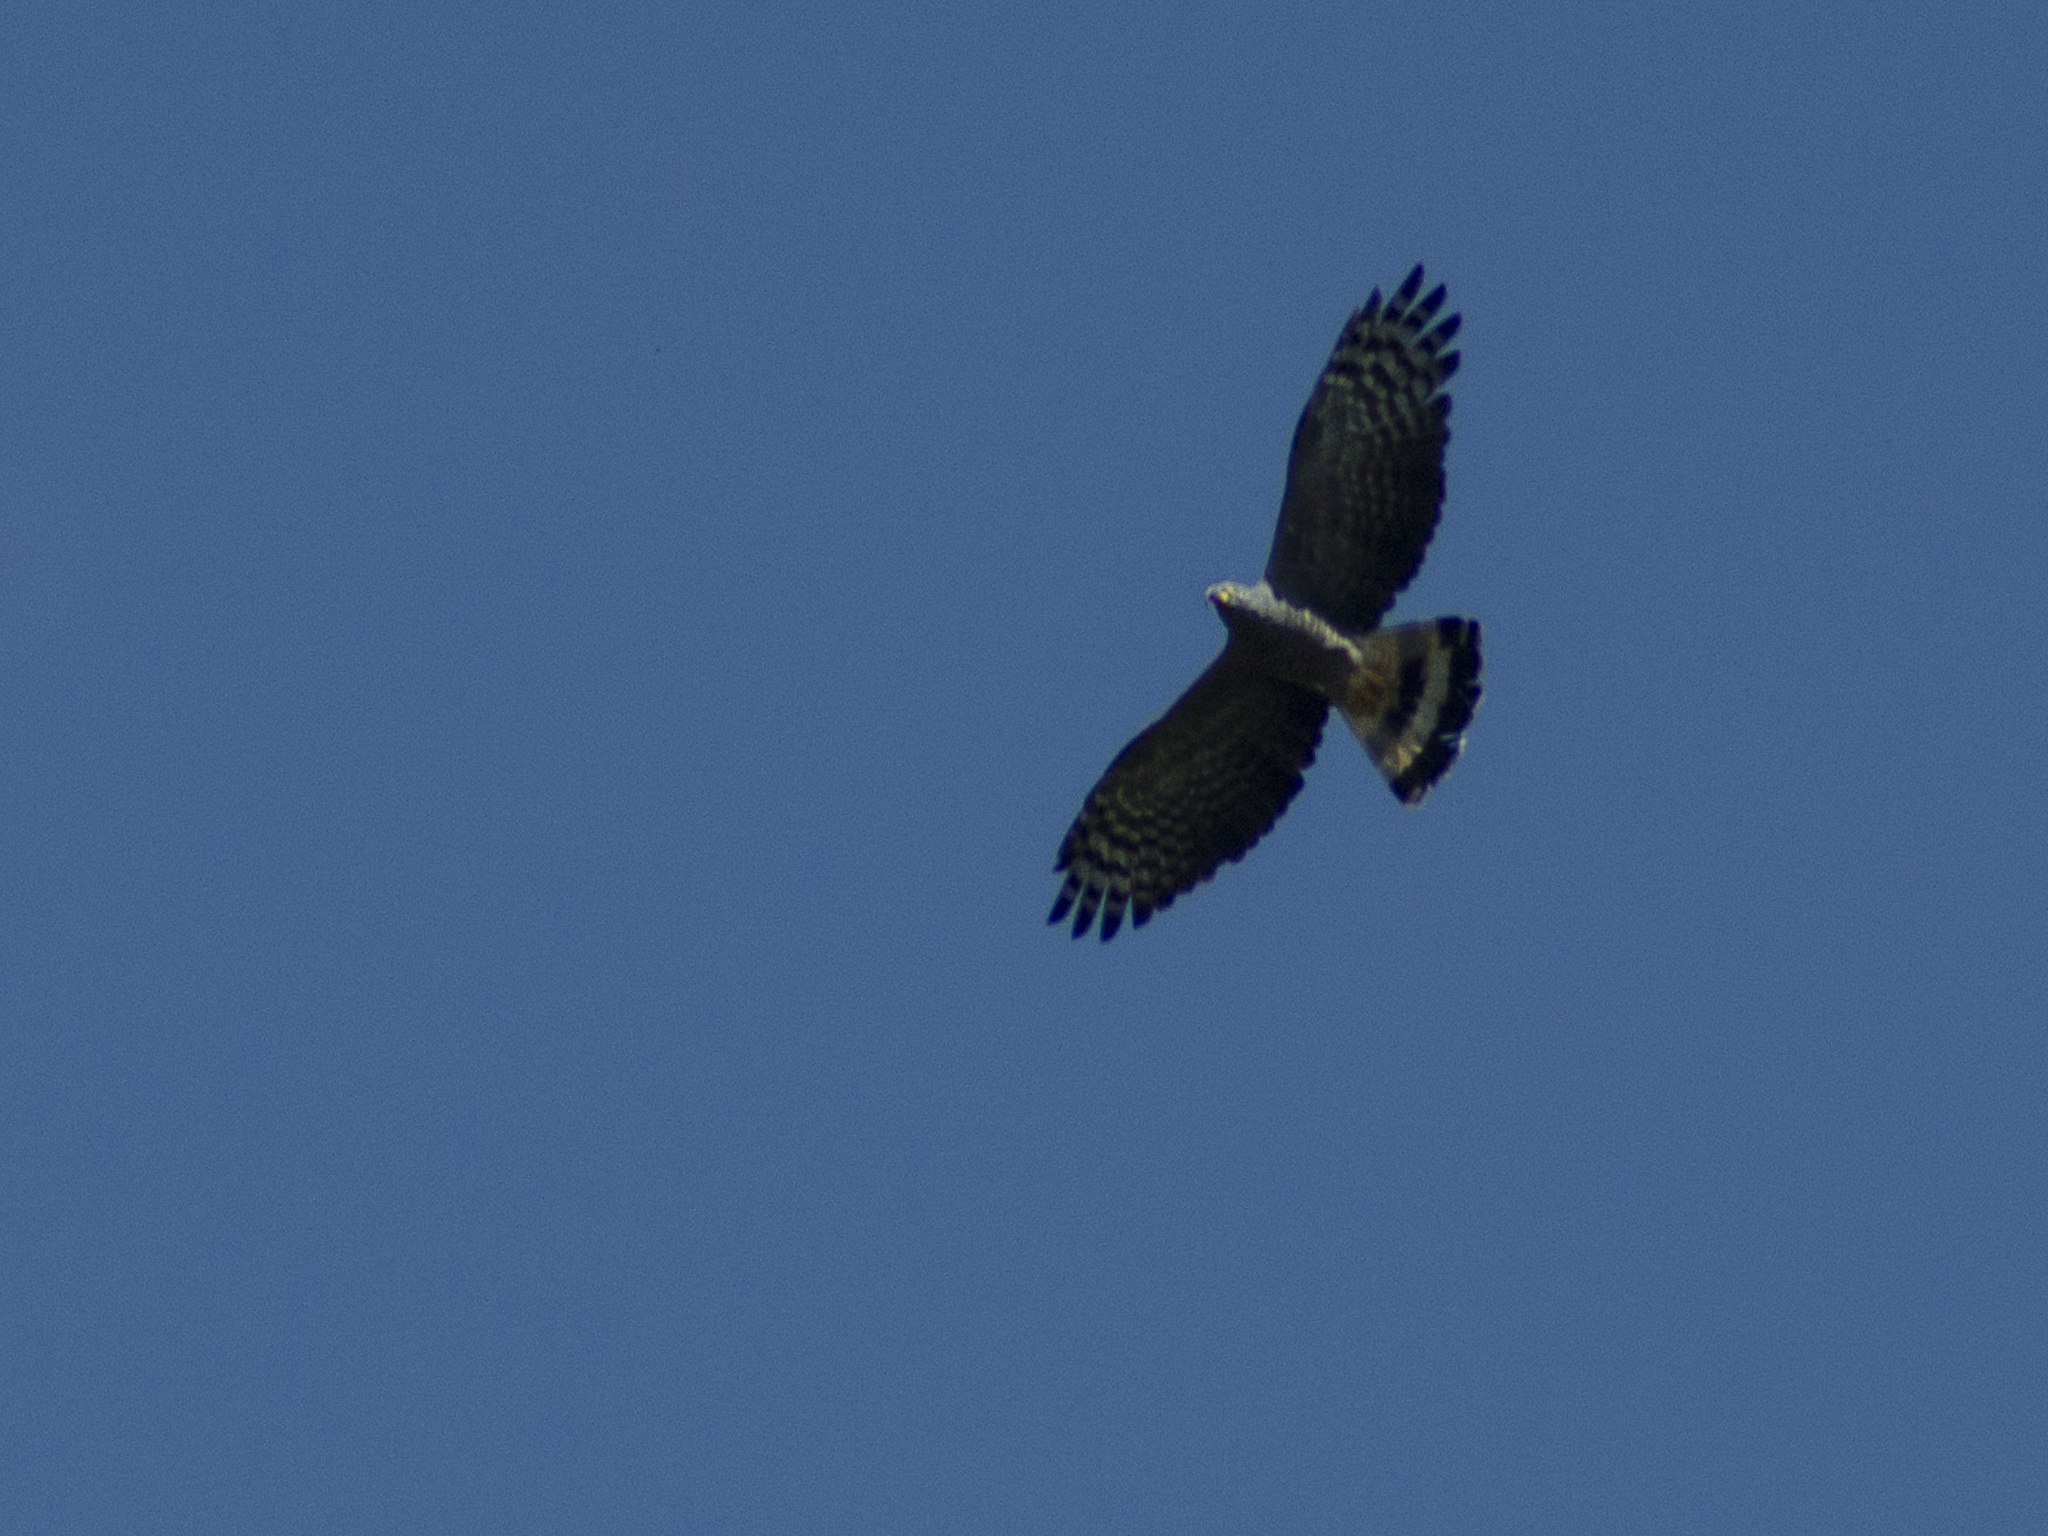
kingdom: Animalia
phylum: Chordata
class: Aves
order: Accipitriformes
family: Accipitridae
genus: Chondrohierax
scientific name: Chondrohierax uncinatus
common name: Hook-billed kite
